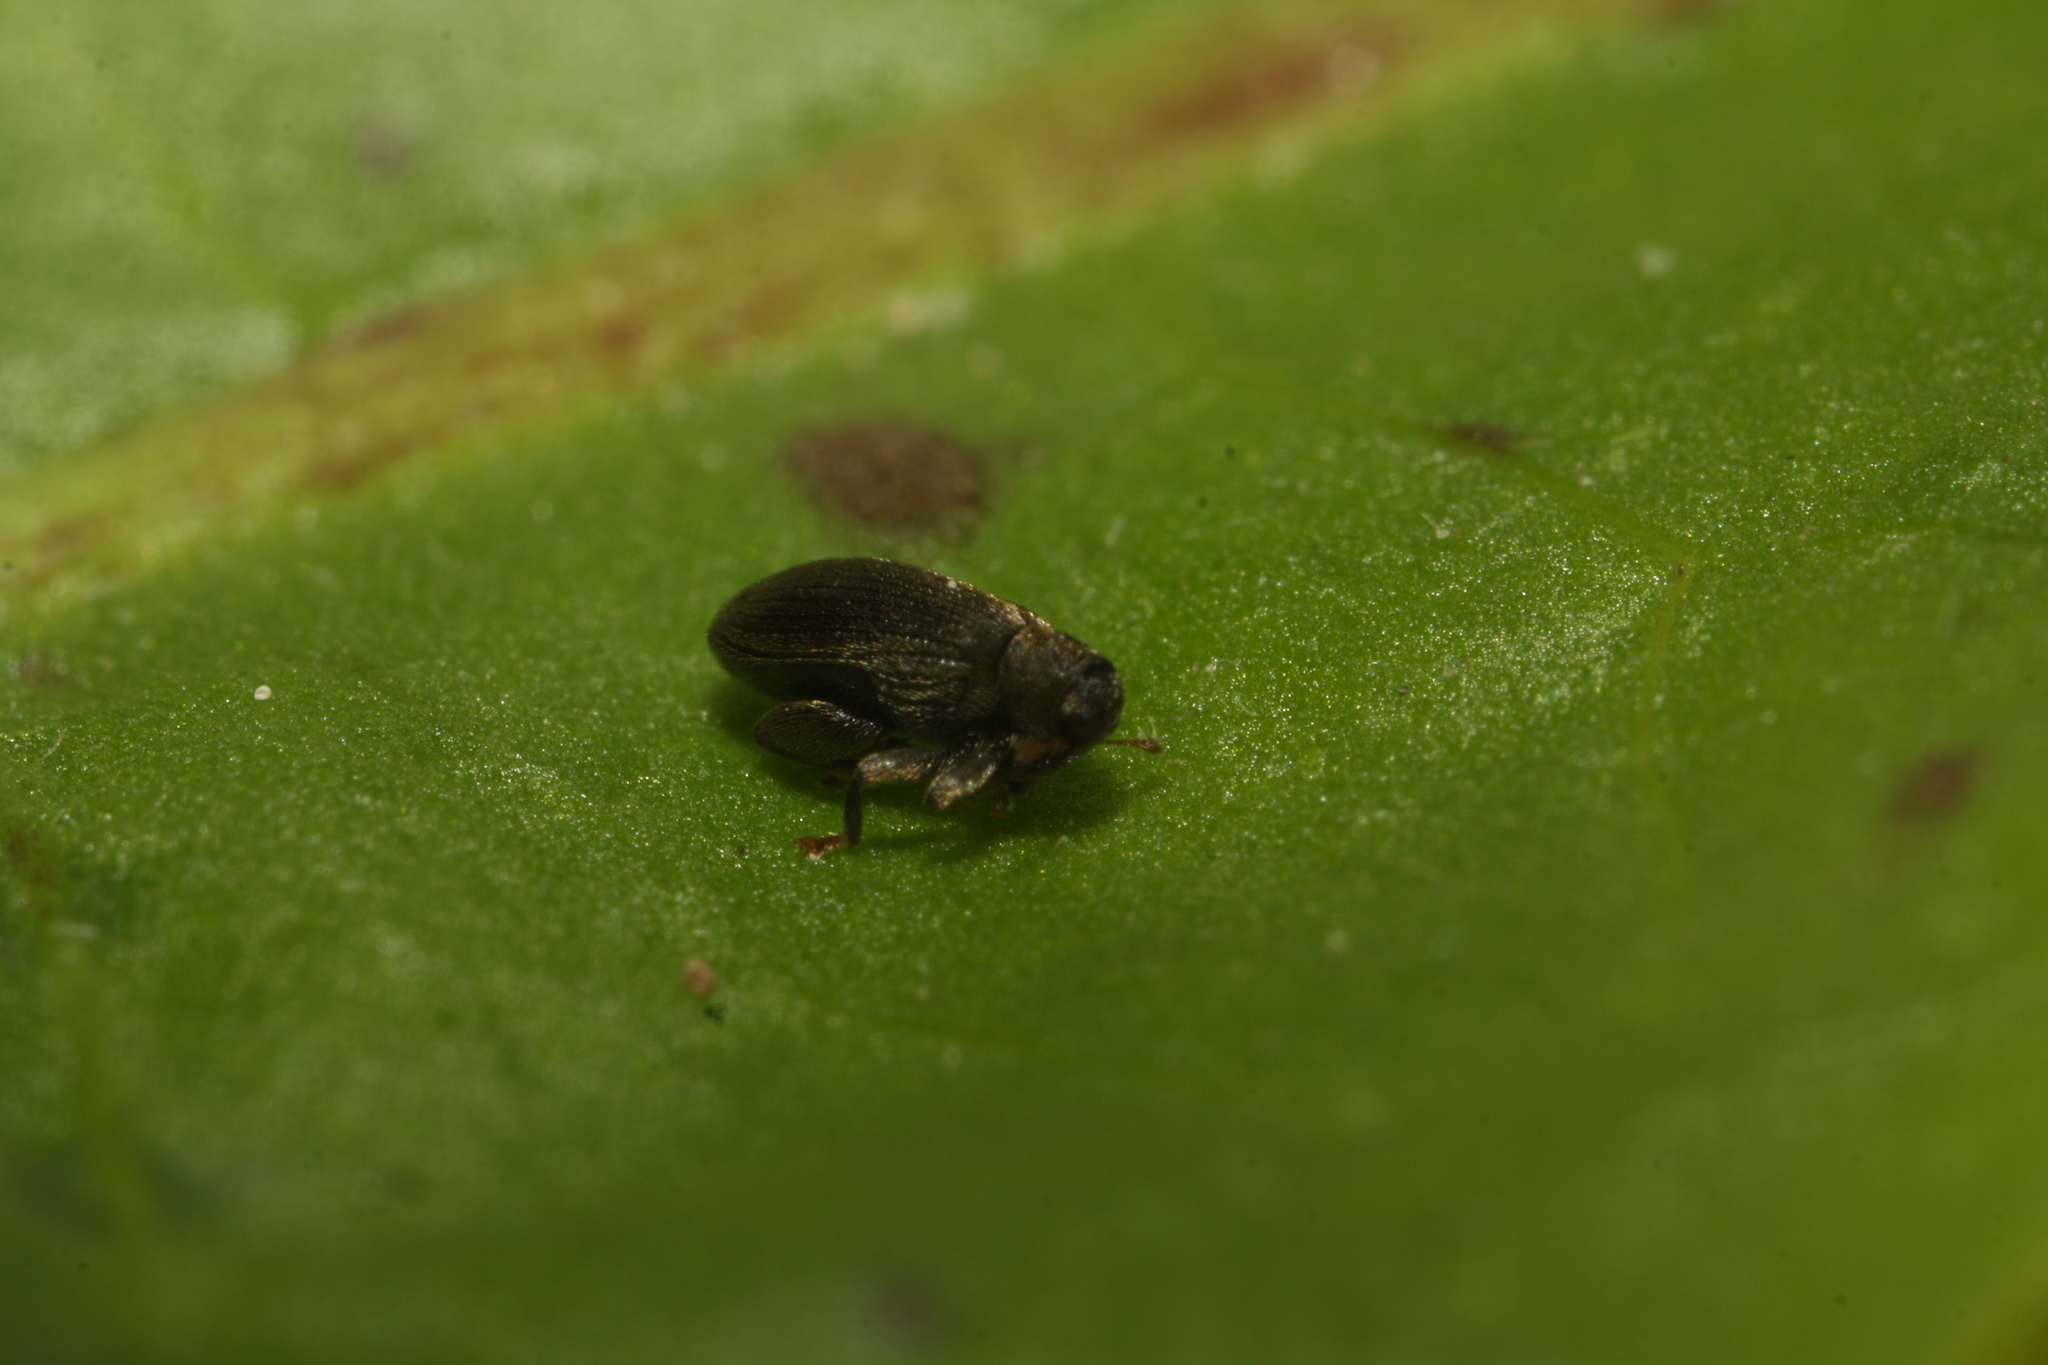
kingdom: Animalia
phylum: Arthropoda
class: Insecta
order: Coleoptera
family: Curculionidae
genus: Orchestes
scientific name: Orchestes fagi
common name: Beech leaf miner
